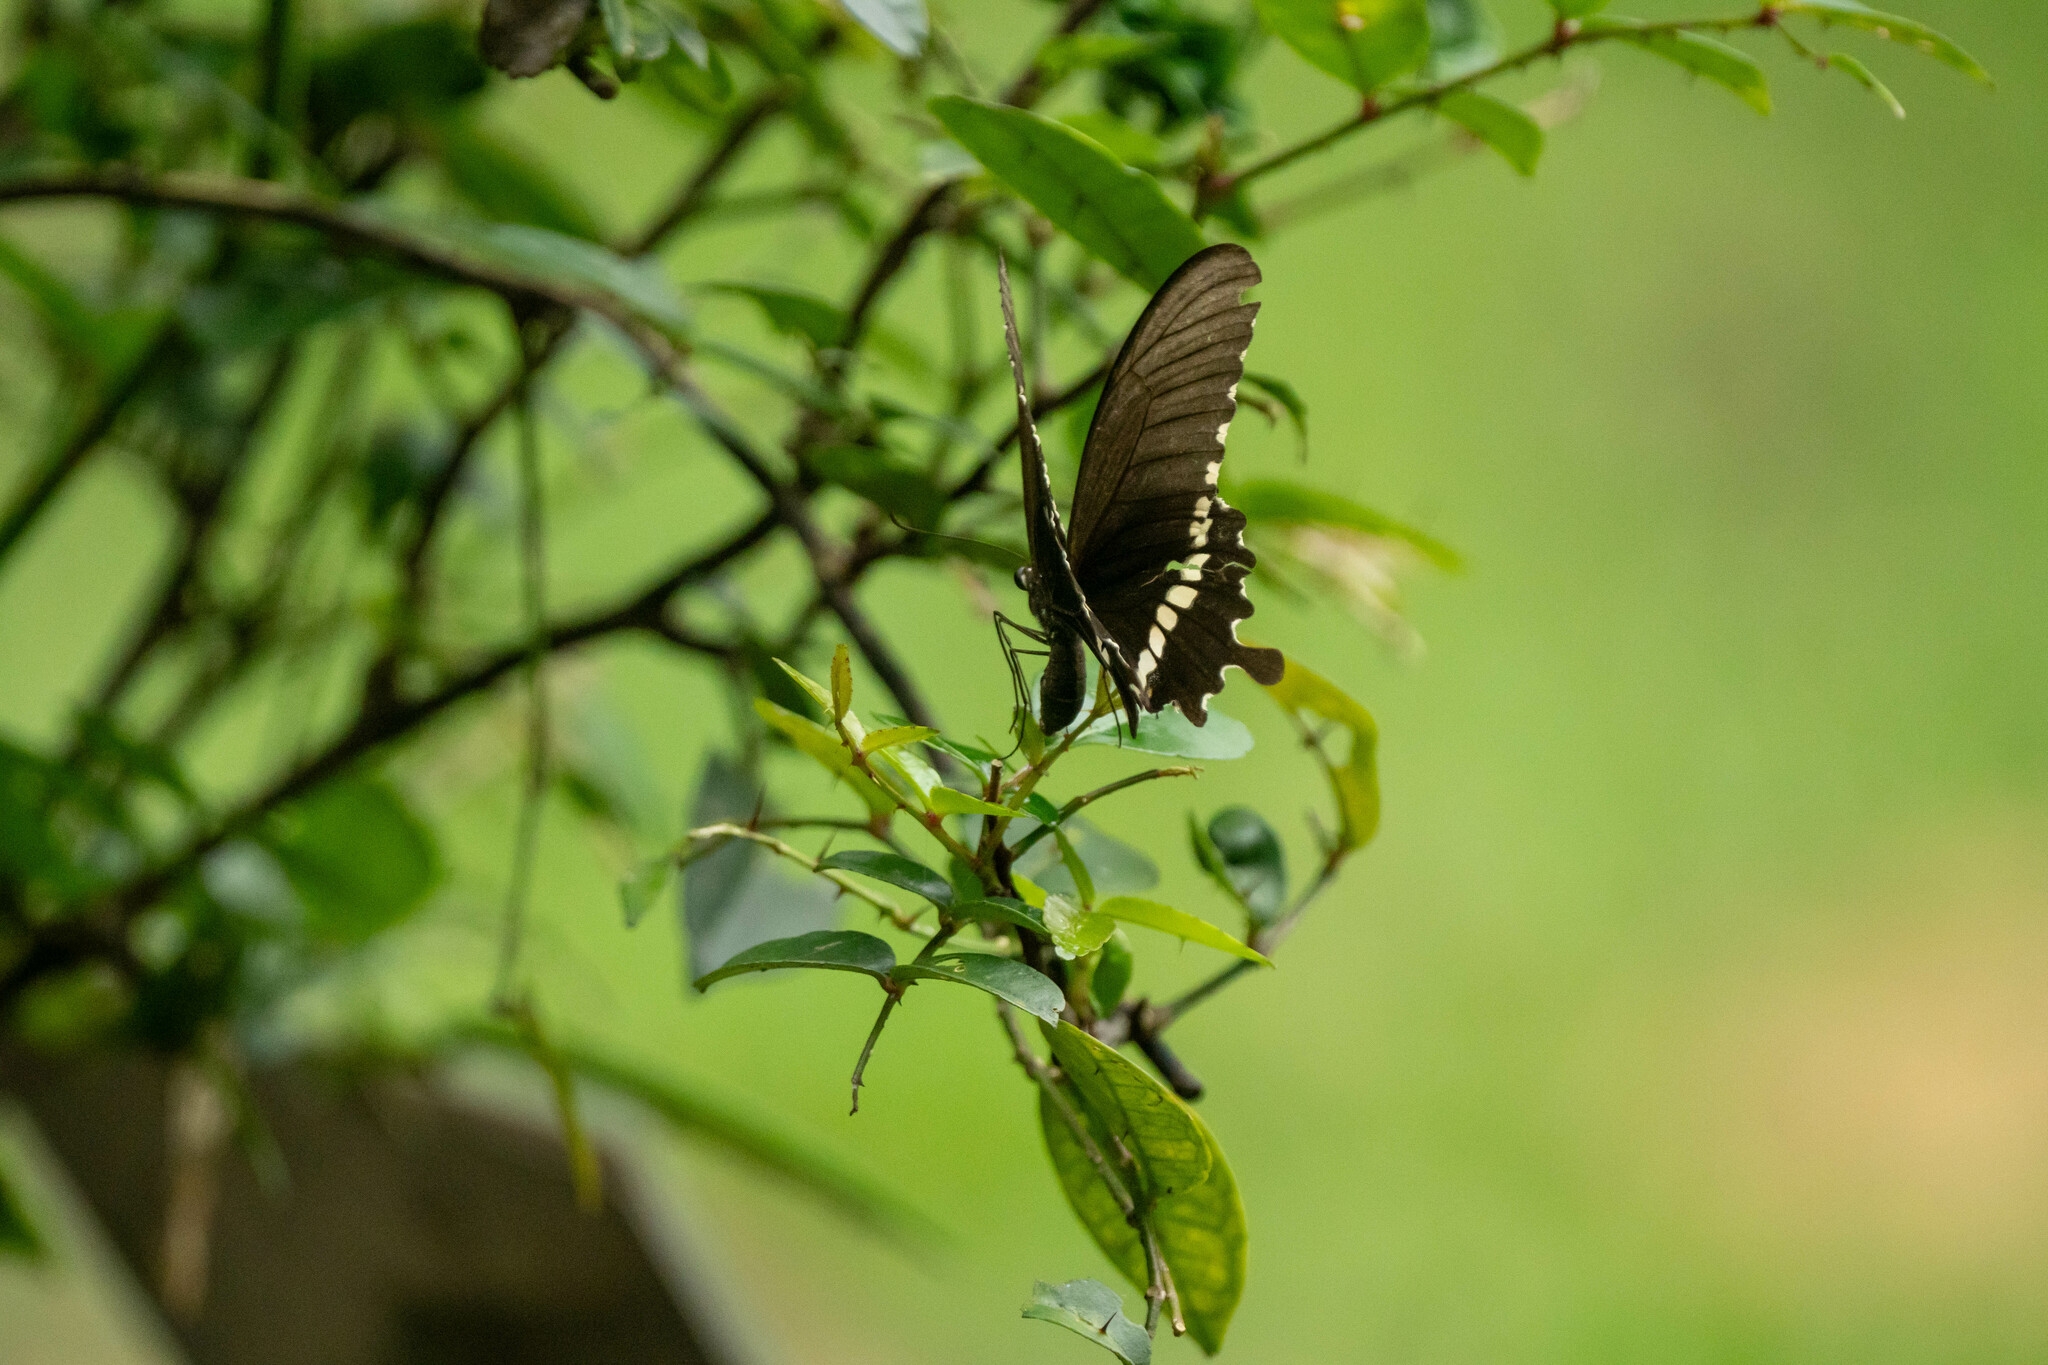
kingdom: Animalia
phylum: Arthropoda
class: Insecta
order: Lepidoptera
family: Papilionidae
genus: Papilio
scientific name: Papilio polytes
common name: Common mormon
